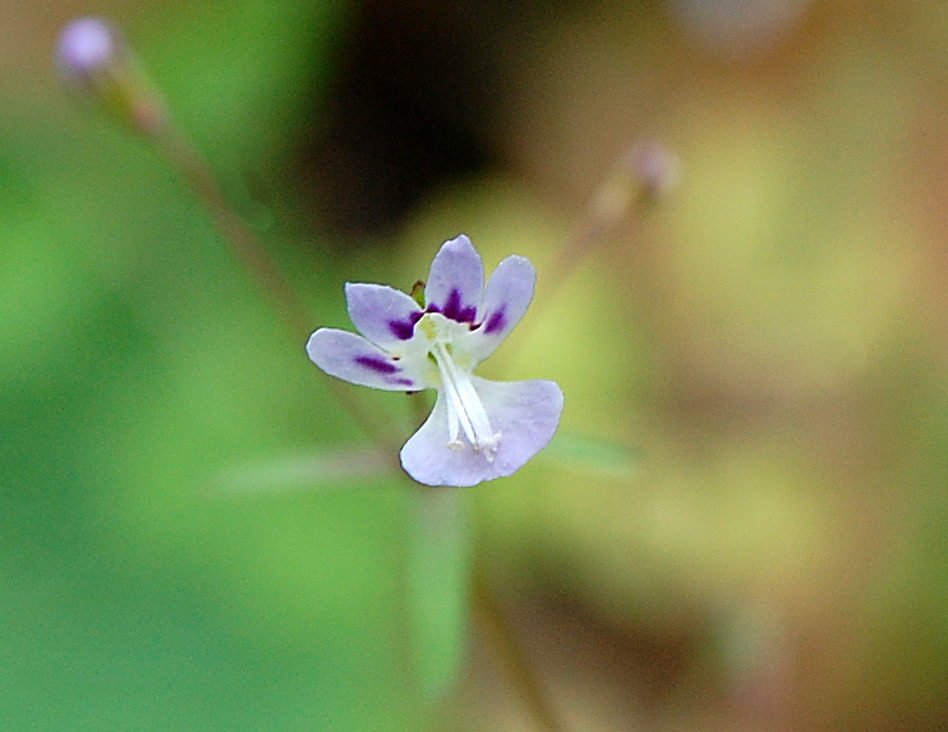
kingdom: Plantae
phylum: Tracheophyta
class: Magnoliopsida
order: Lamiales
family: Plantaginaceae
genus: Tonella
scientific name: Tonella tenella
